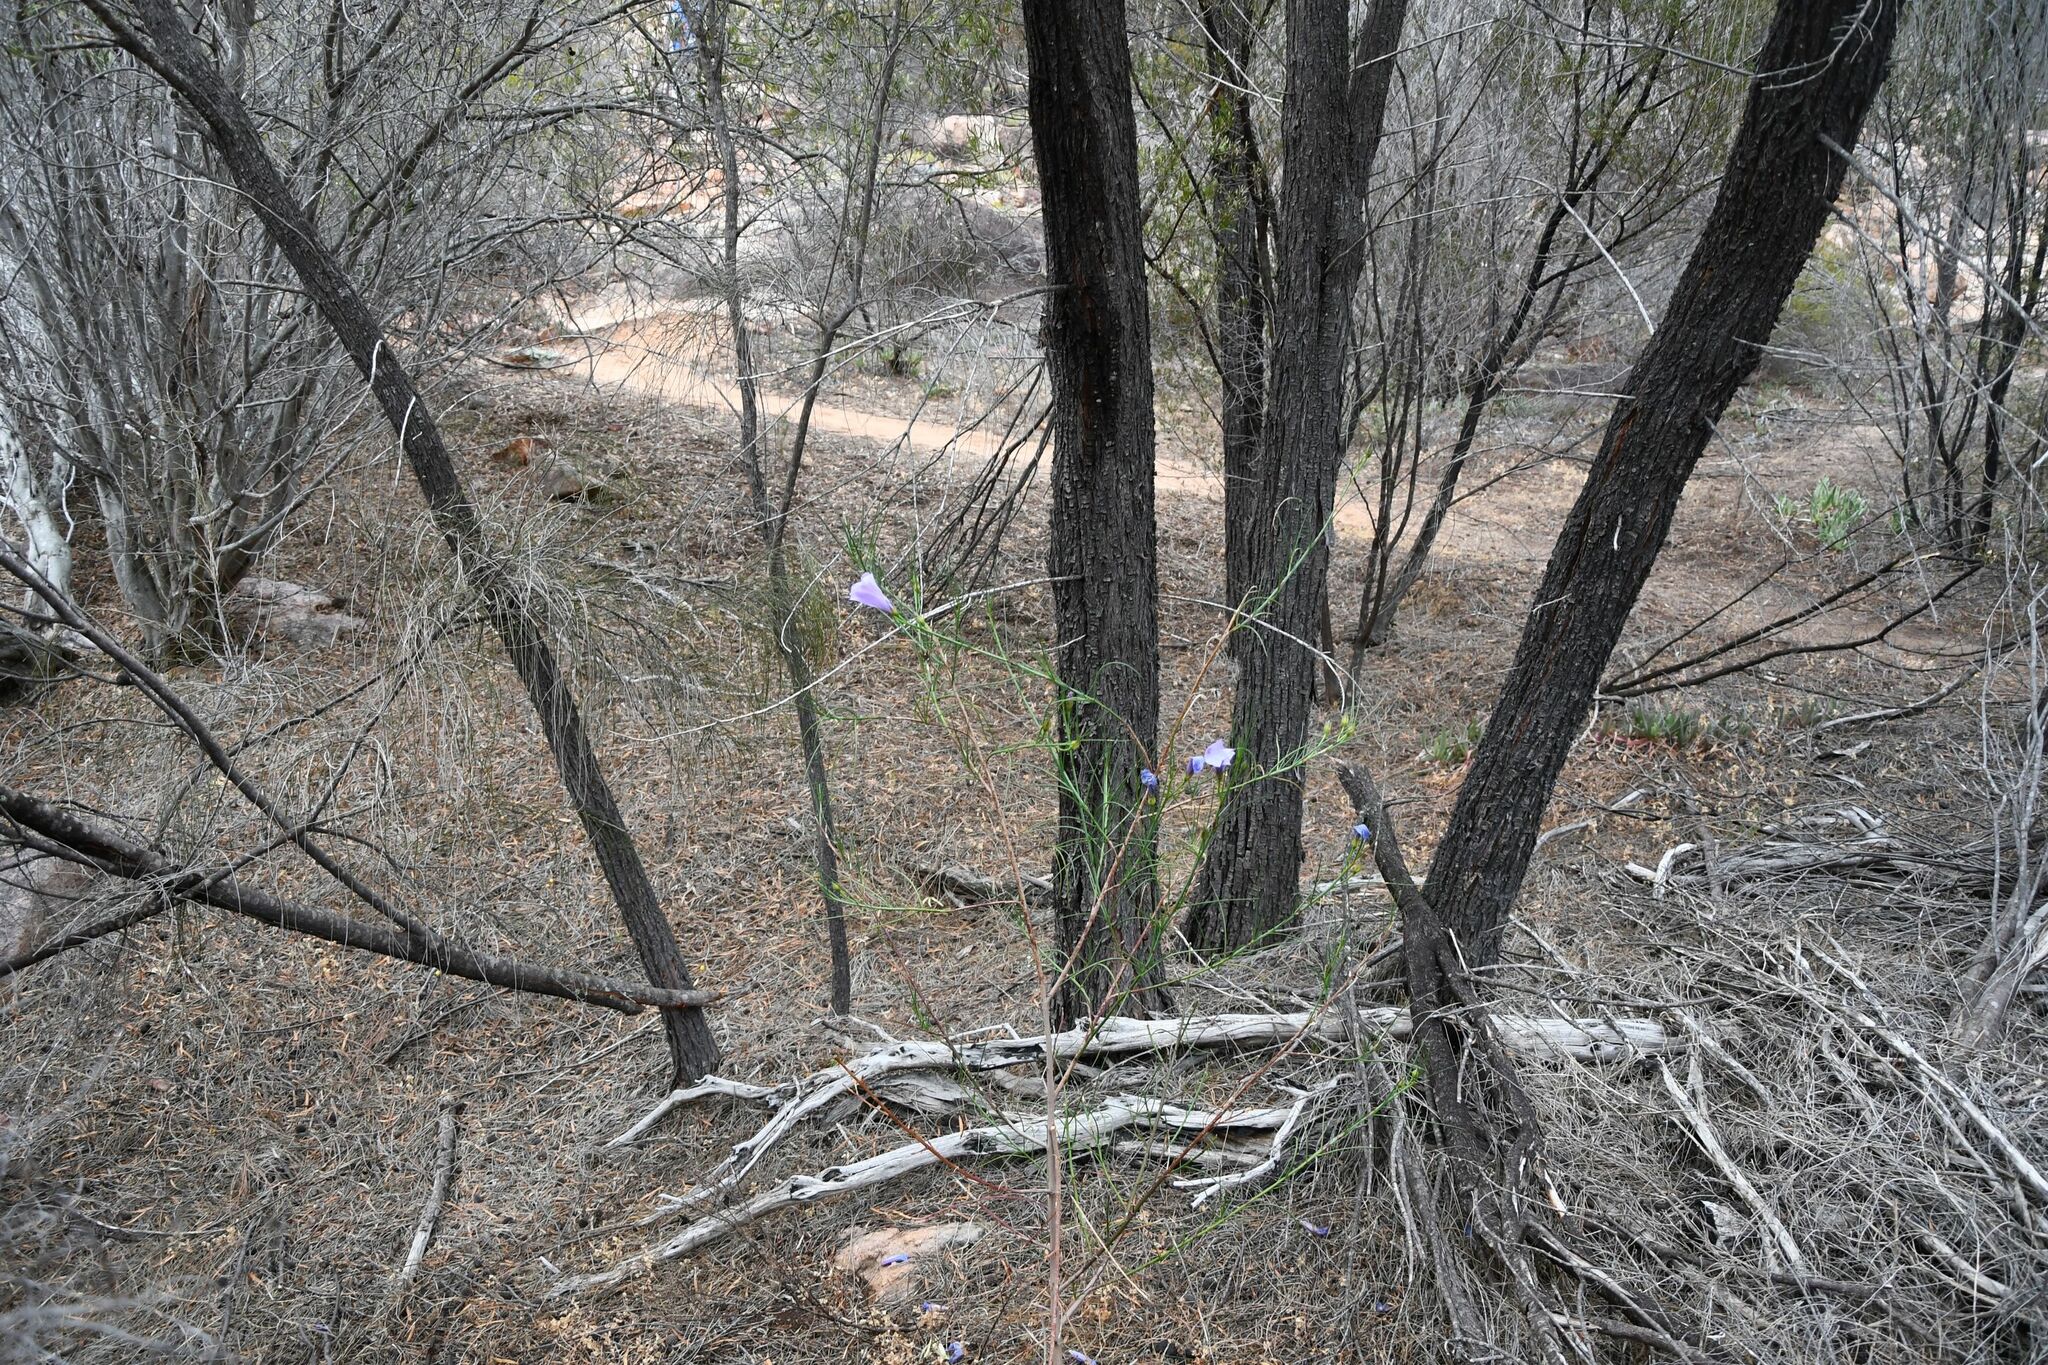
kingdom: Plantae
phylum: Tracheophyta
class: Magnoliopsida
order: Malvales
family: Malvaceae
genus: Hibiscus
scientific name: Hibiscus hakeifolius
